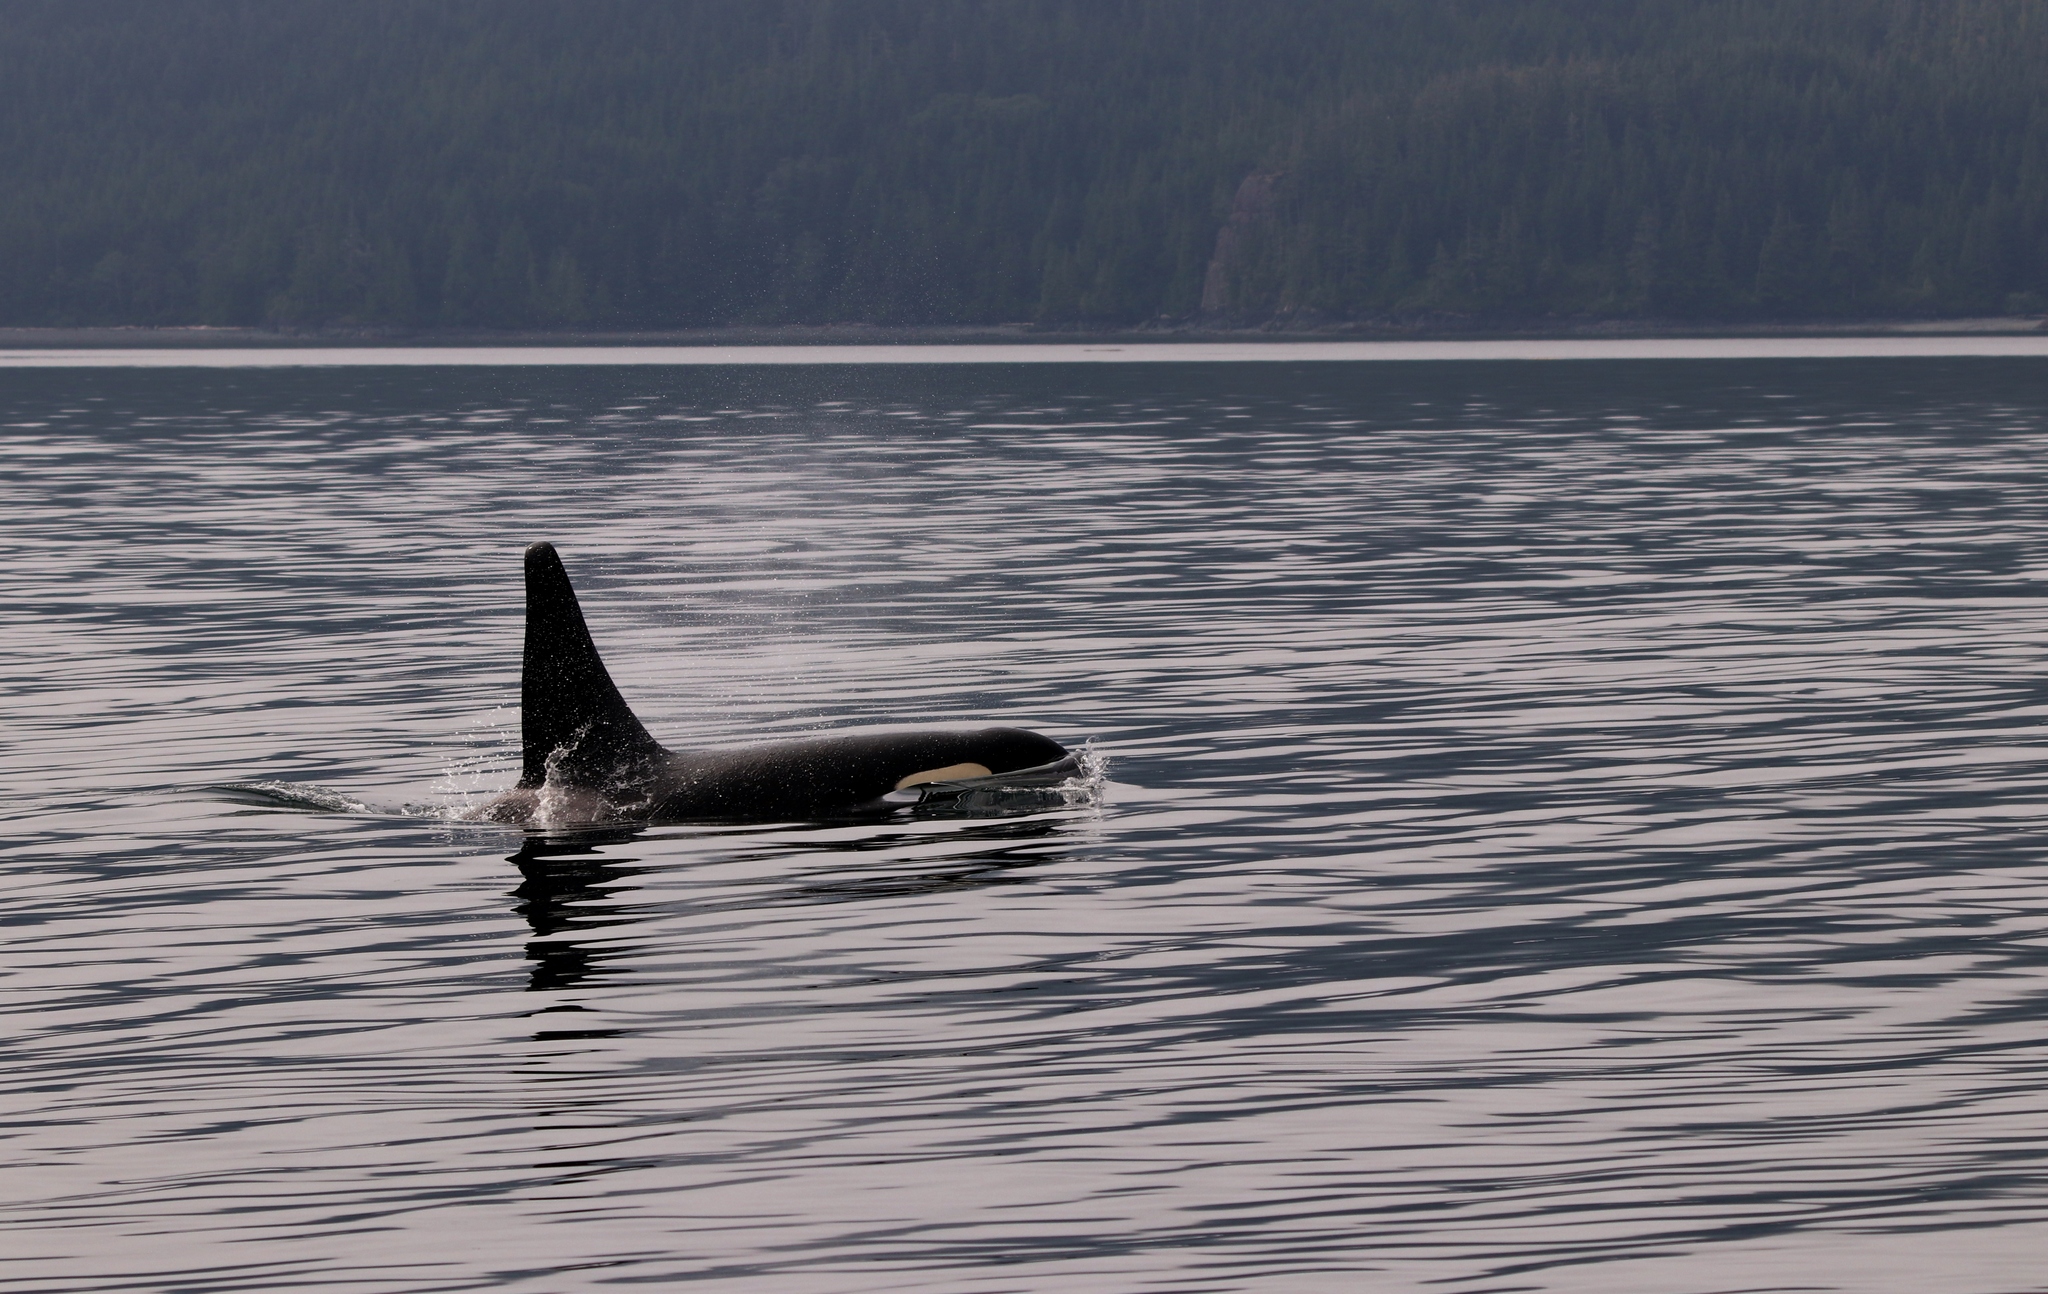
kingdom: Animalia
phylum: Chordata
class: Mammalia
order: Cetacea
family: Delphinidae
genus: Orcinus
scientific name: Orcinus orca
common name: Killer whale
